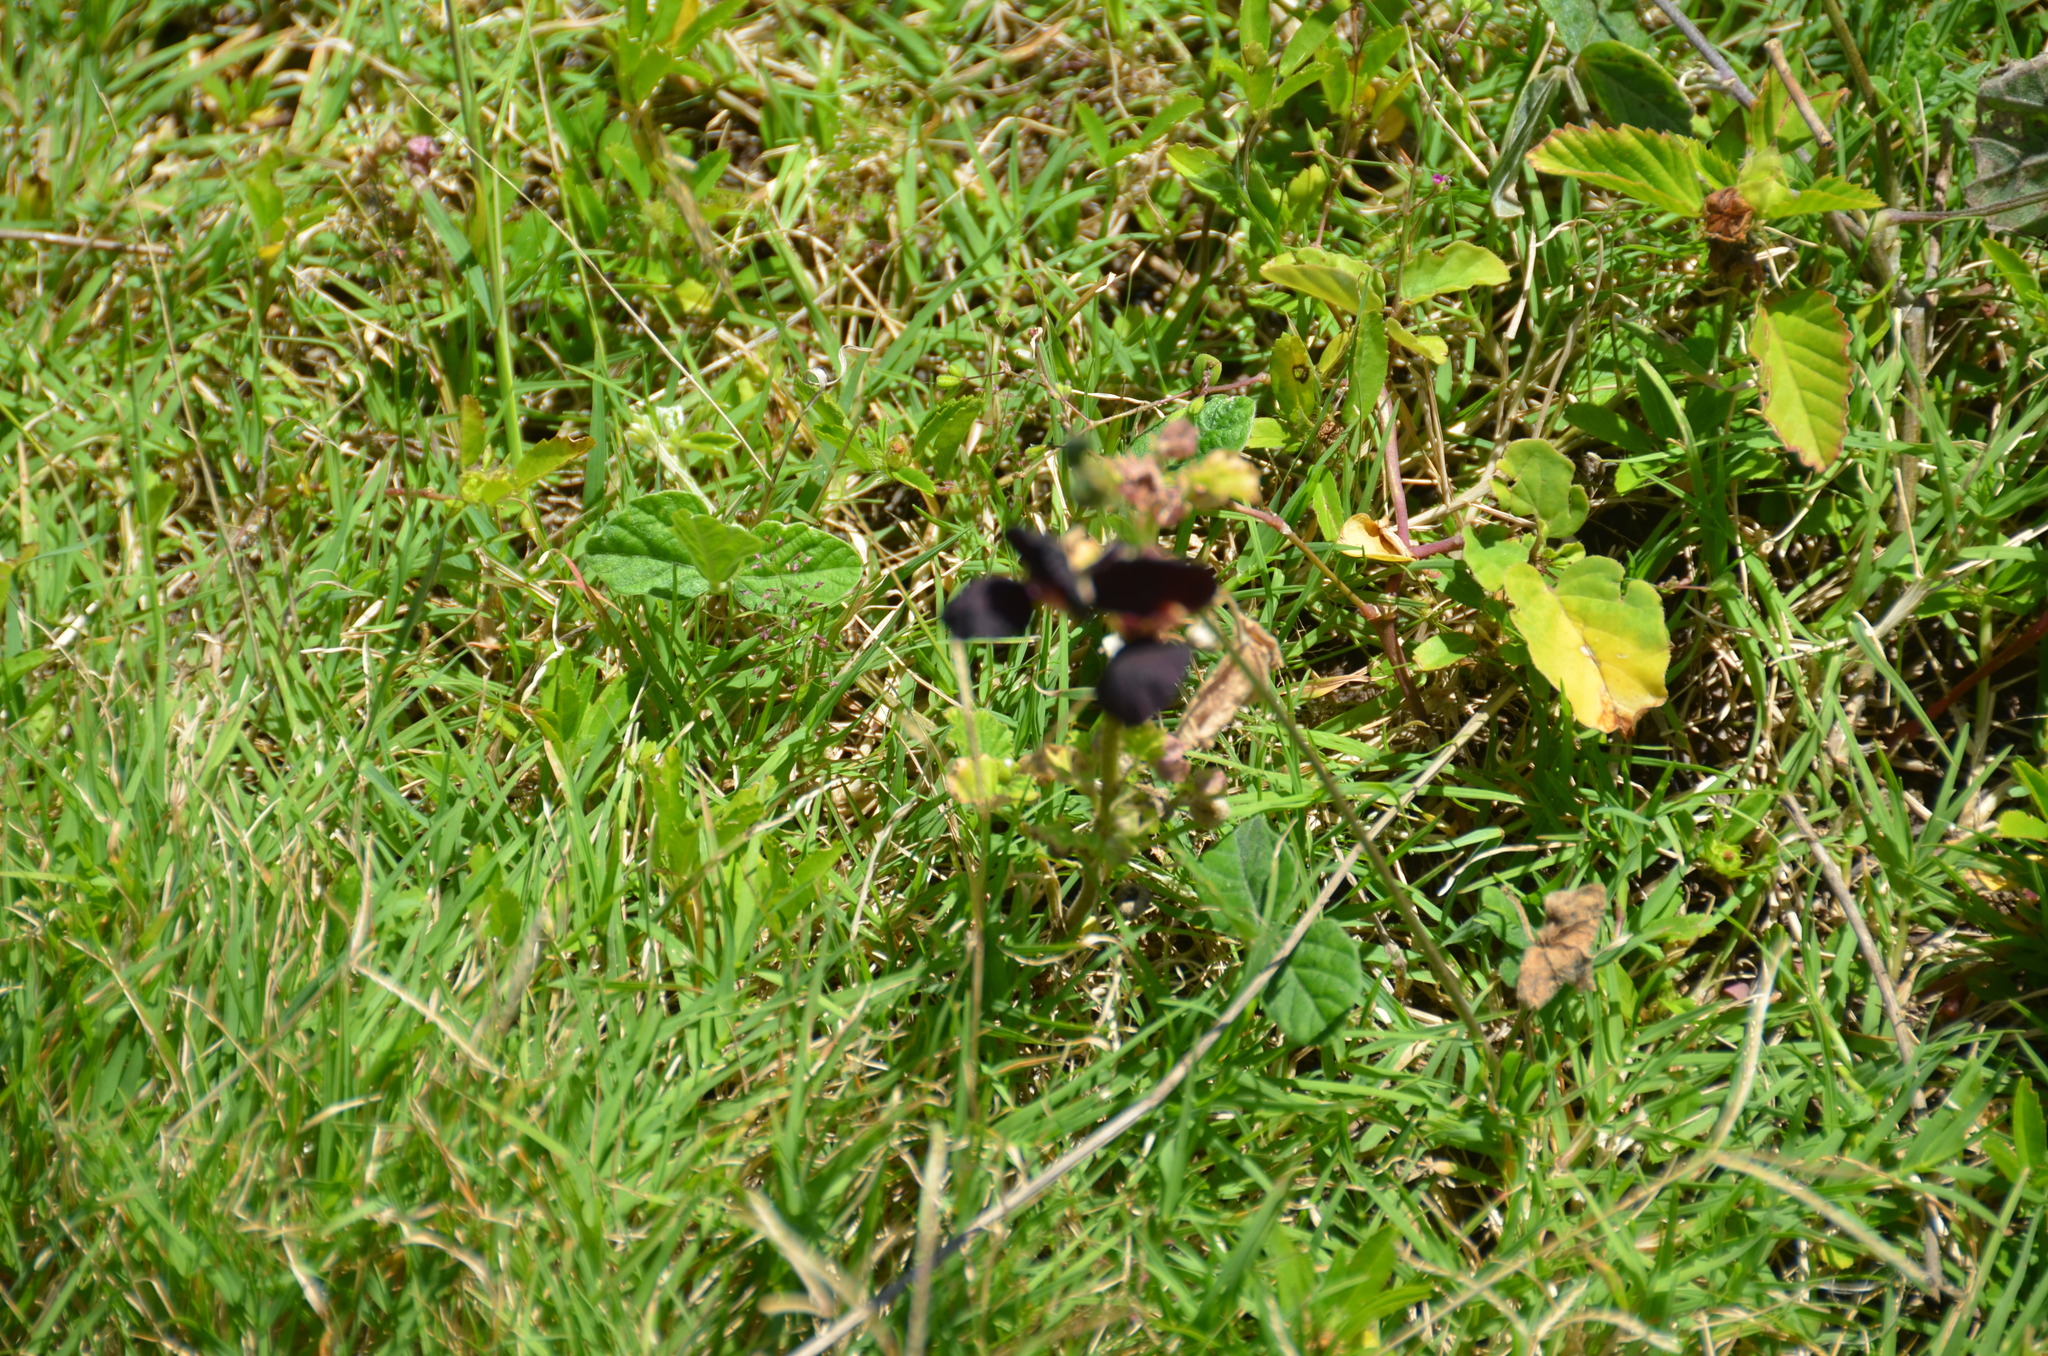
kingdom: Plantae
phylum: Tracheophyta
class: Liliopsida
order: Poales
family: Poaceae
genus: Cynodon
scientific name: Cynodon dactylon
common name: Bermuda grass
